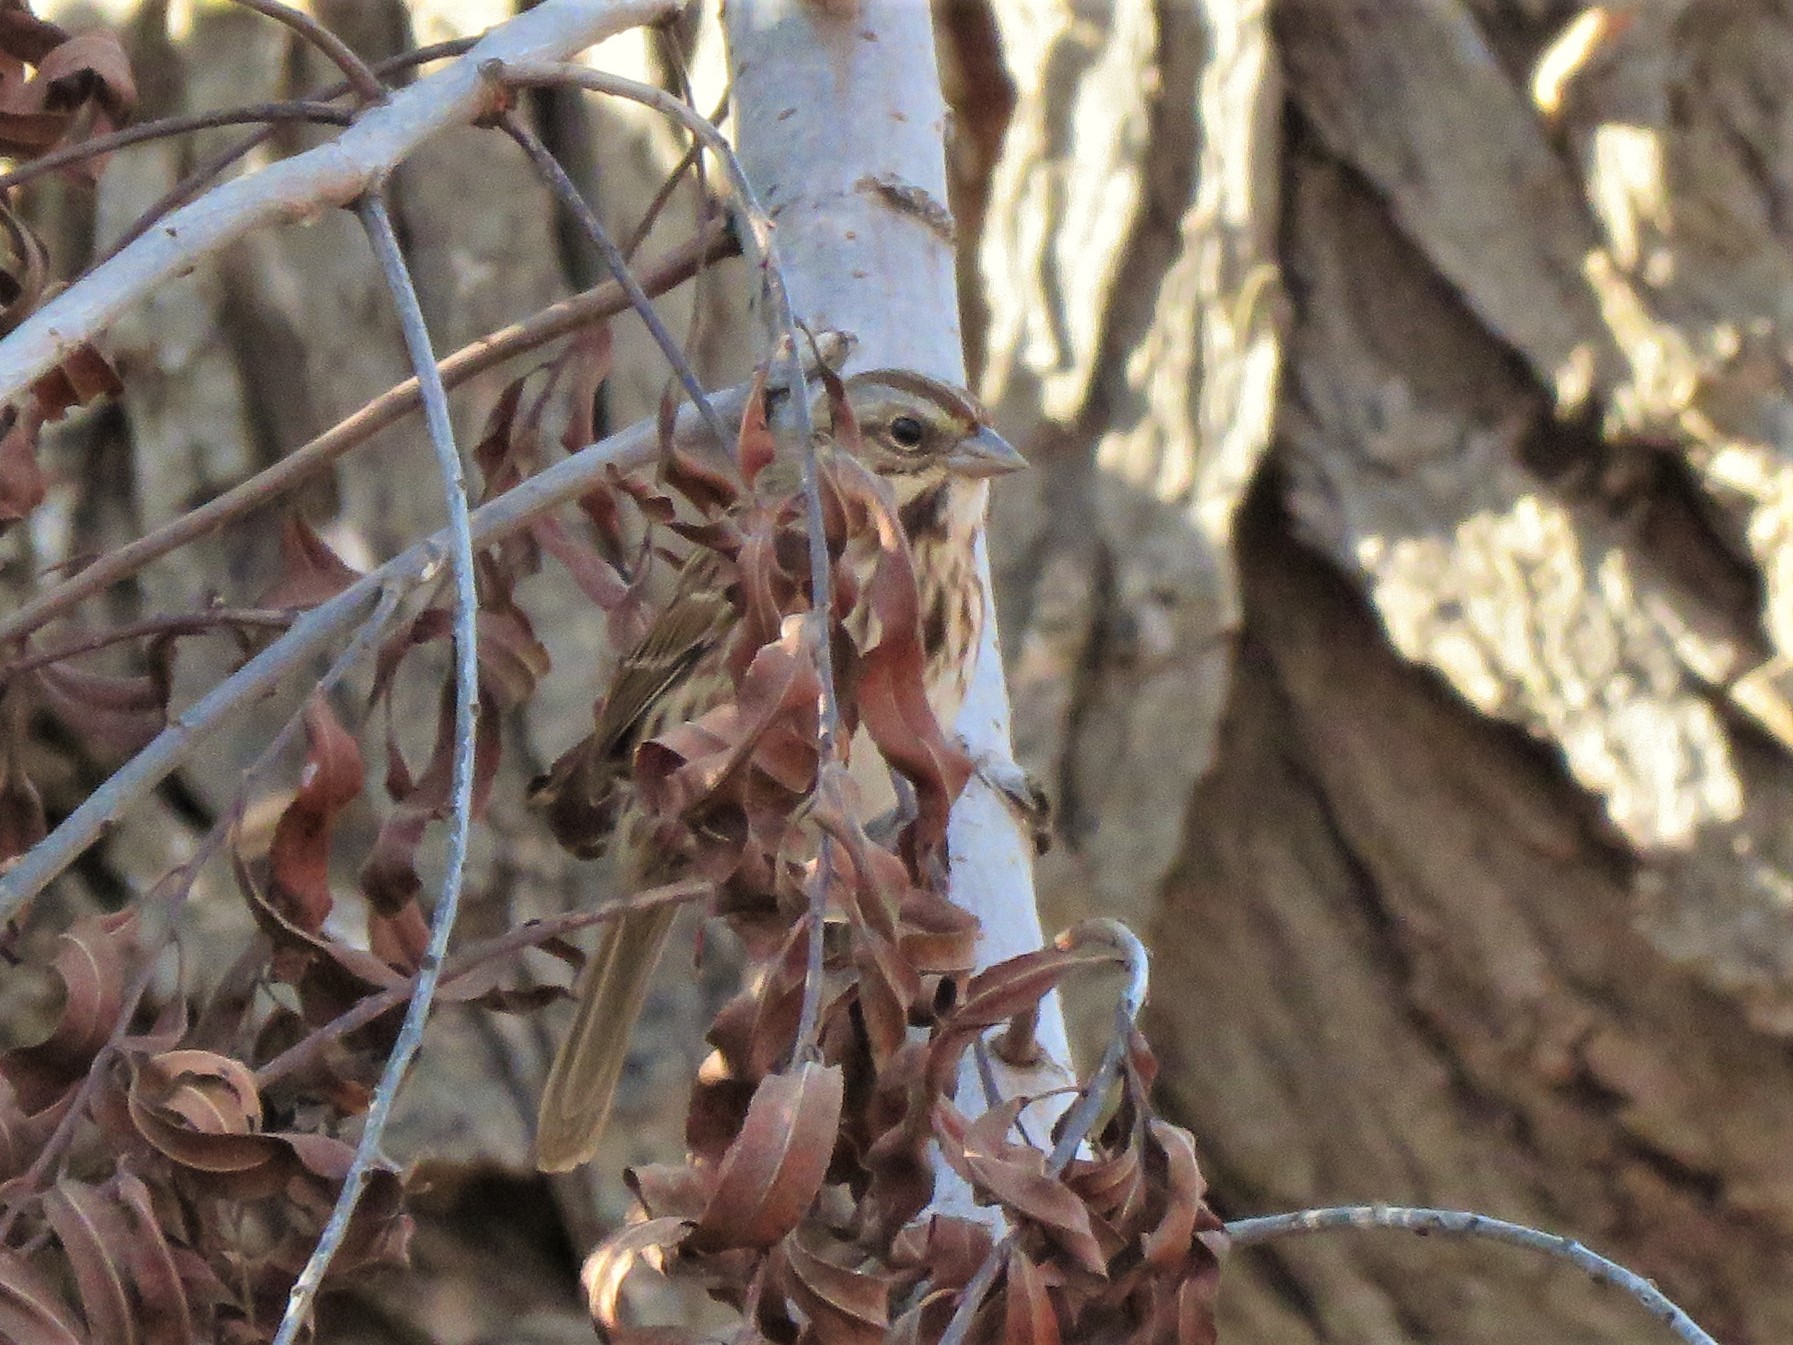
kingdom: Animalia
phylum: Chordata
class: Aves
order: Passeriformes
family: Passerellidae
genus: Melospiza
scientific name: Melospiza melodia
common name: Song sparrow
